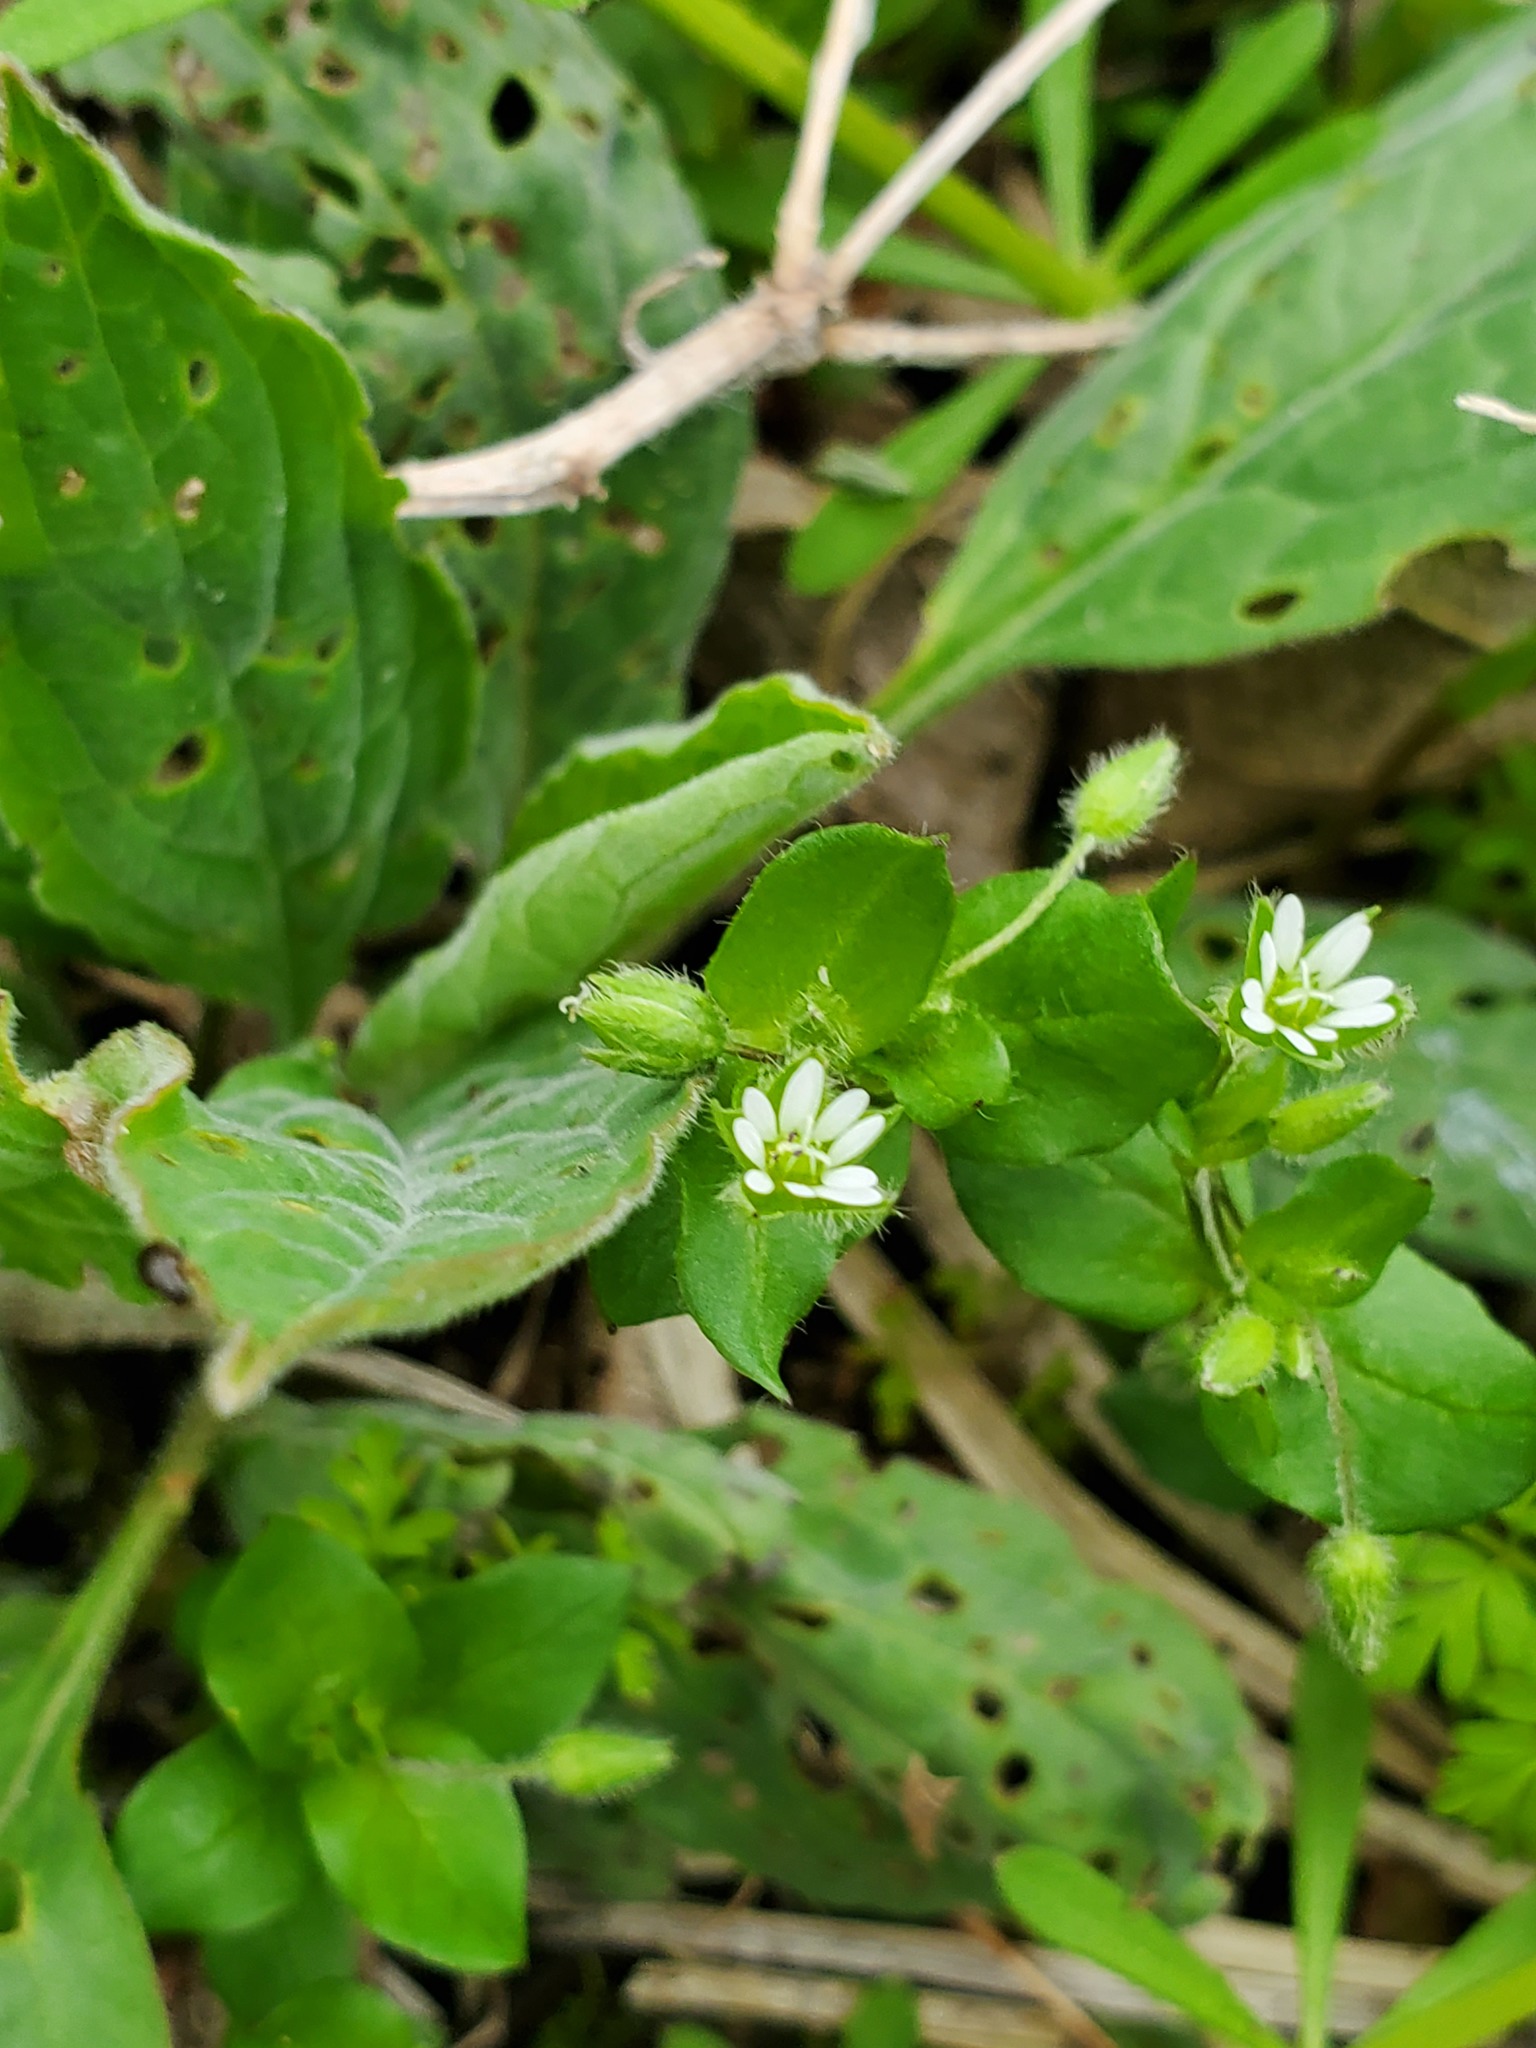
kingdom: Plantae
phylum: Tracheophyta
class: Magnoliopsida
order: Caryophyllales
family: Caryophyllaceae
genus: Stellaria
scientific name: Stellaria media
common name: Common chickweed
